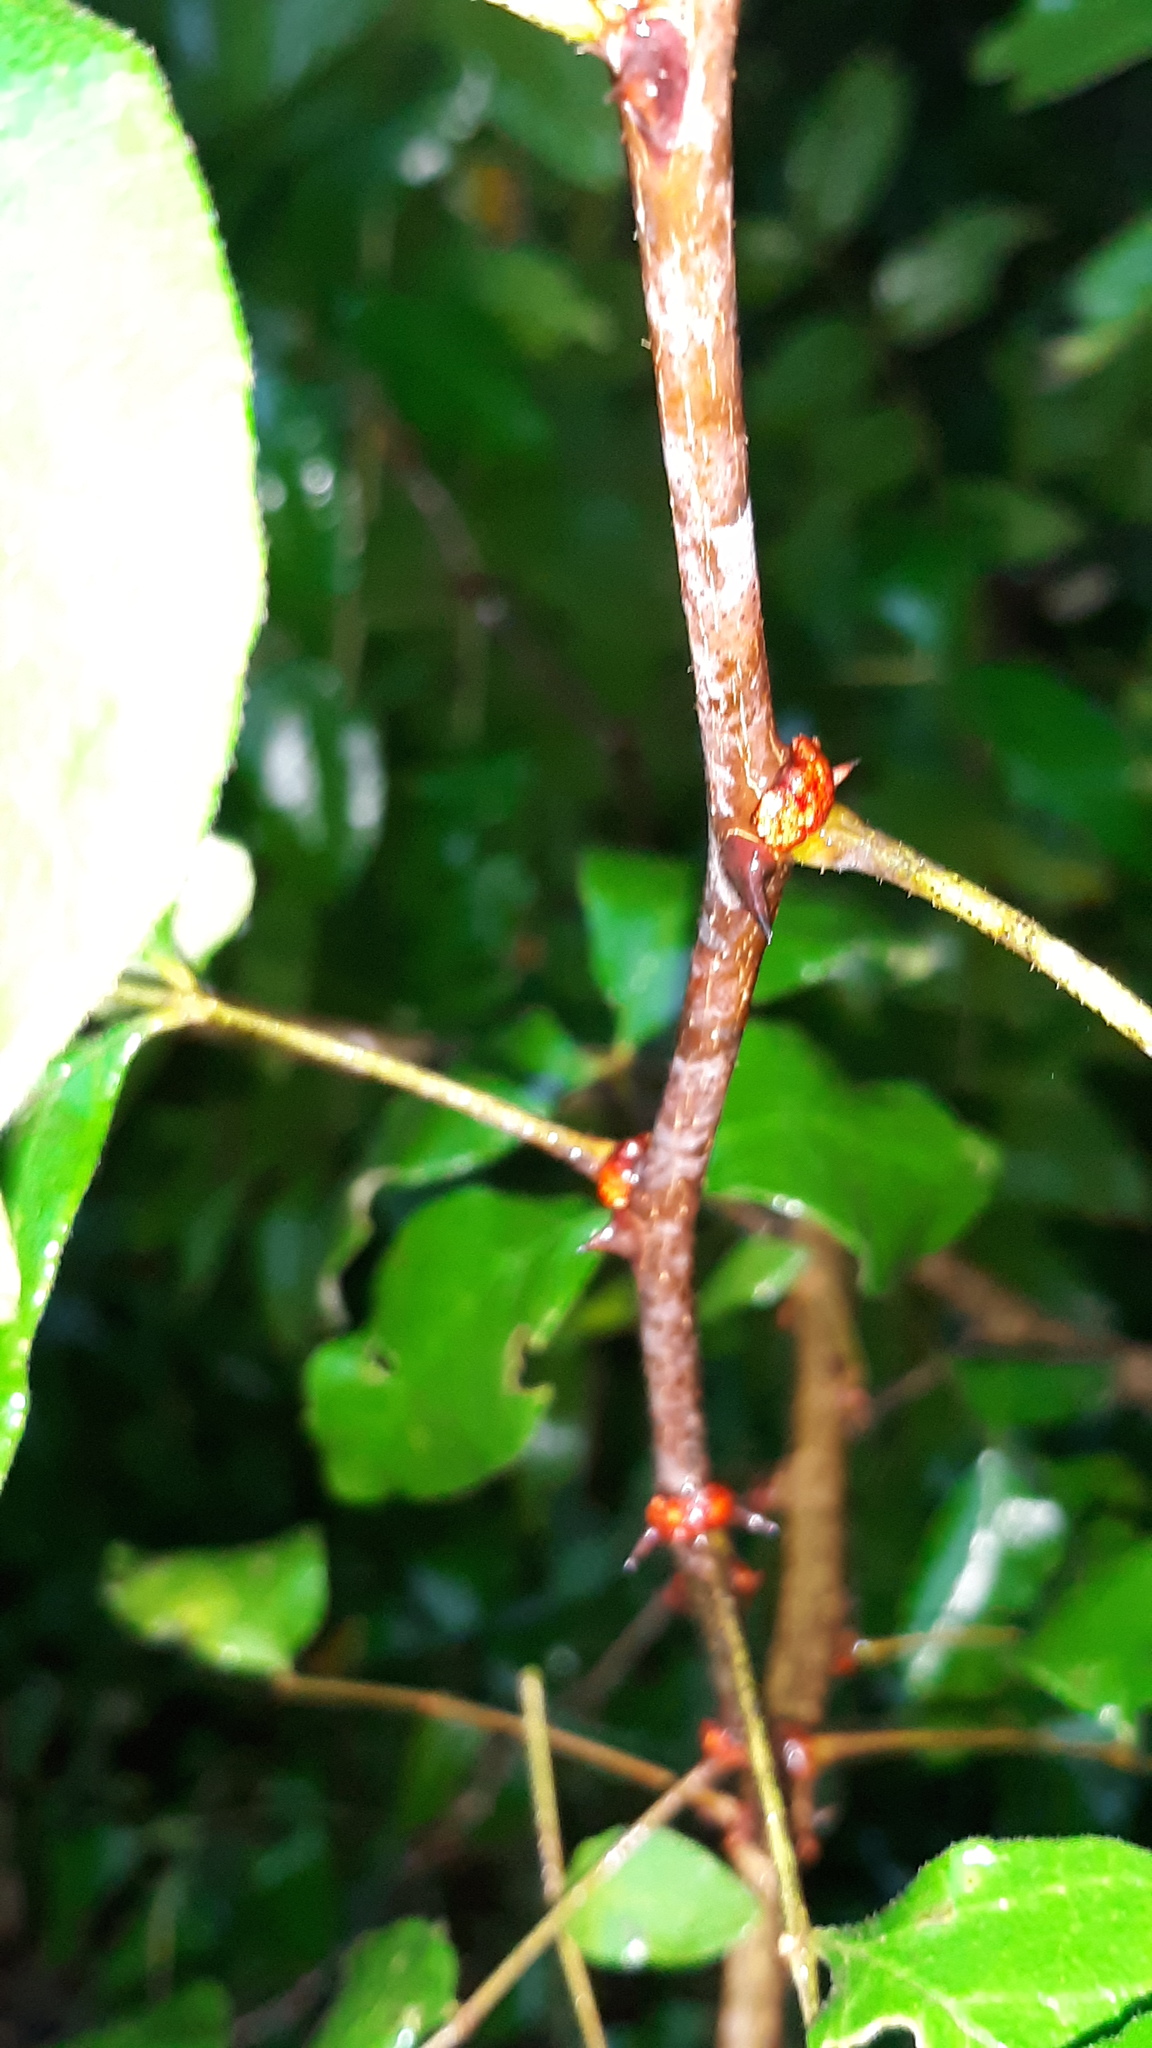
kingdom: Plantae
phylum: Tracheophyta
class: Magnoliopsida
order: Sapindales
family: Rutaceae
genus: Zanthoxylum
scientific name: Zanthoxylum americanum
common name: Northern prickly-ash
